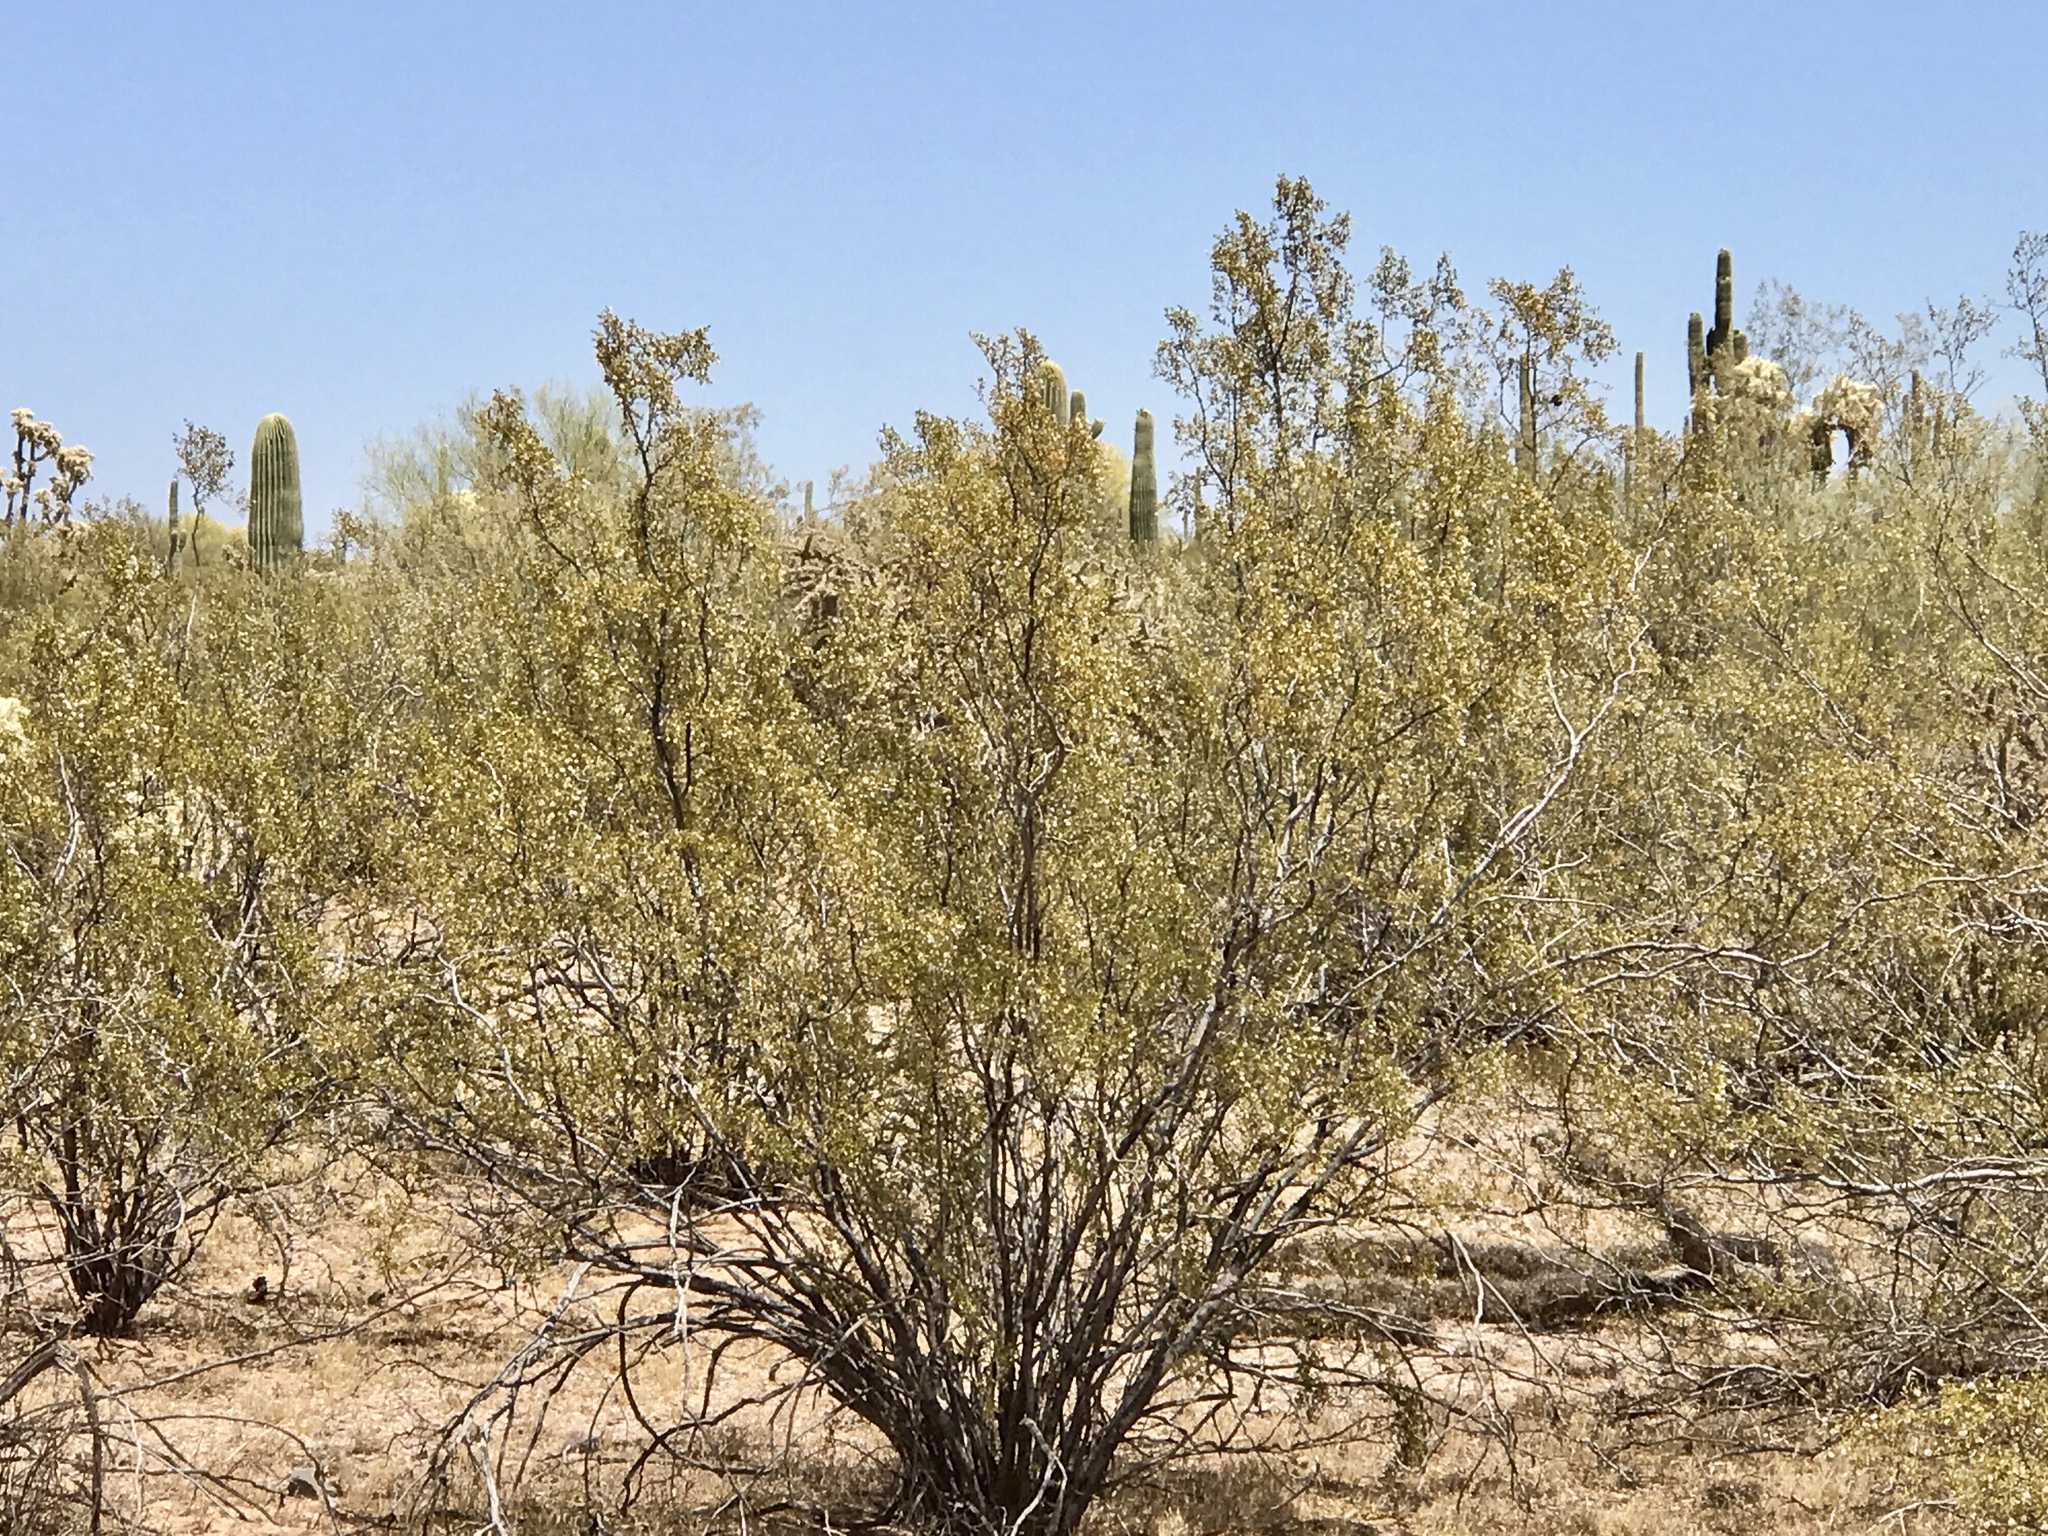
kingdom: Plantae
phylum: Tracheophyta
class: Magnoliopsida
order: Zygophyllales
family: Zygophyllaceae
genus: Larrea
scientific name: Larrea tridentata
